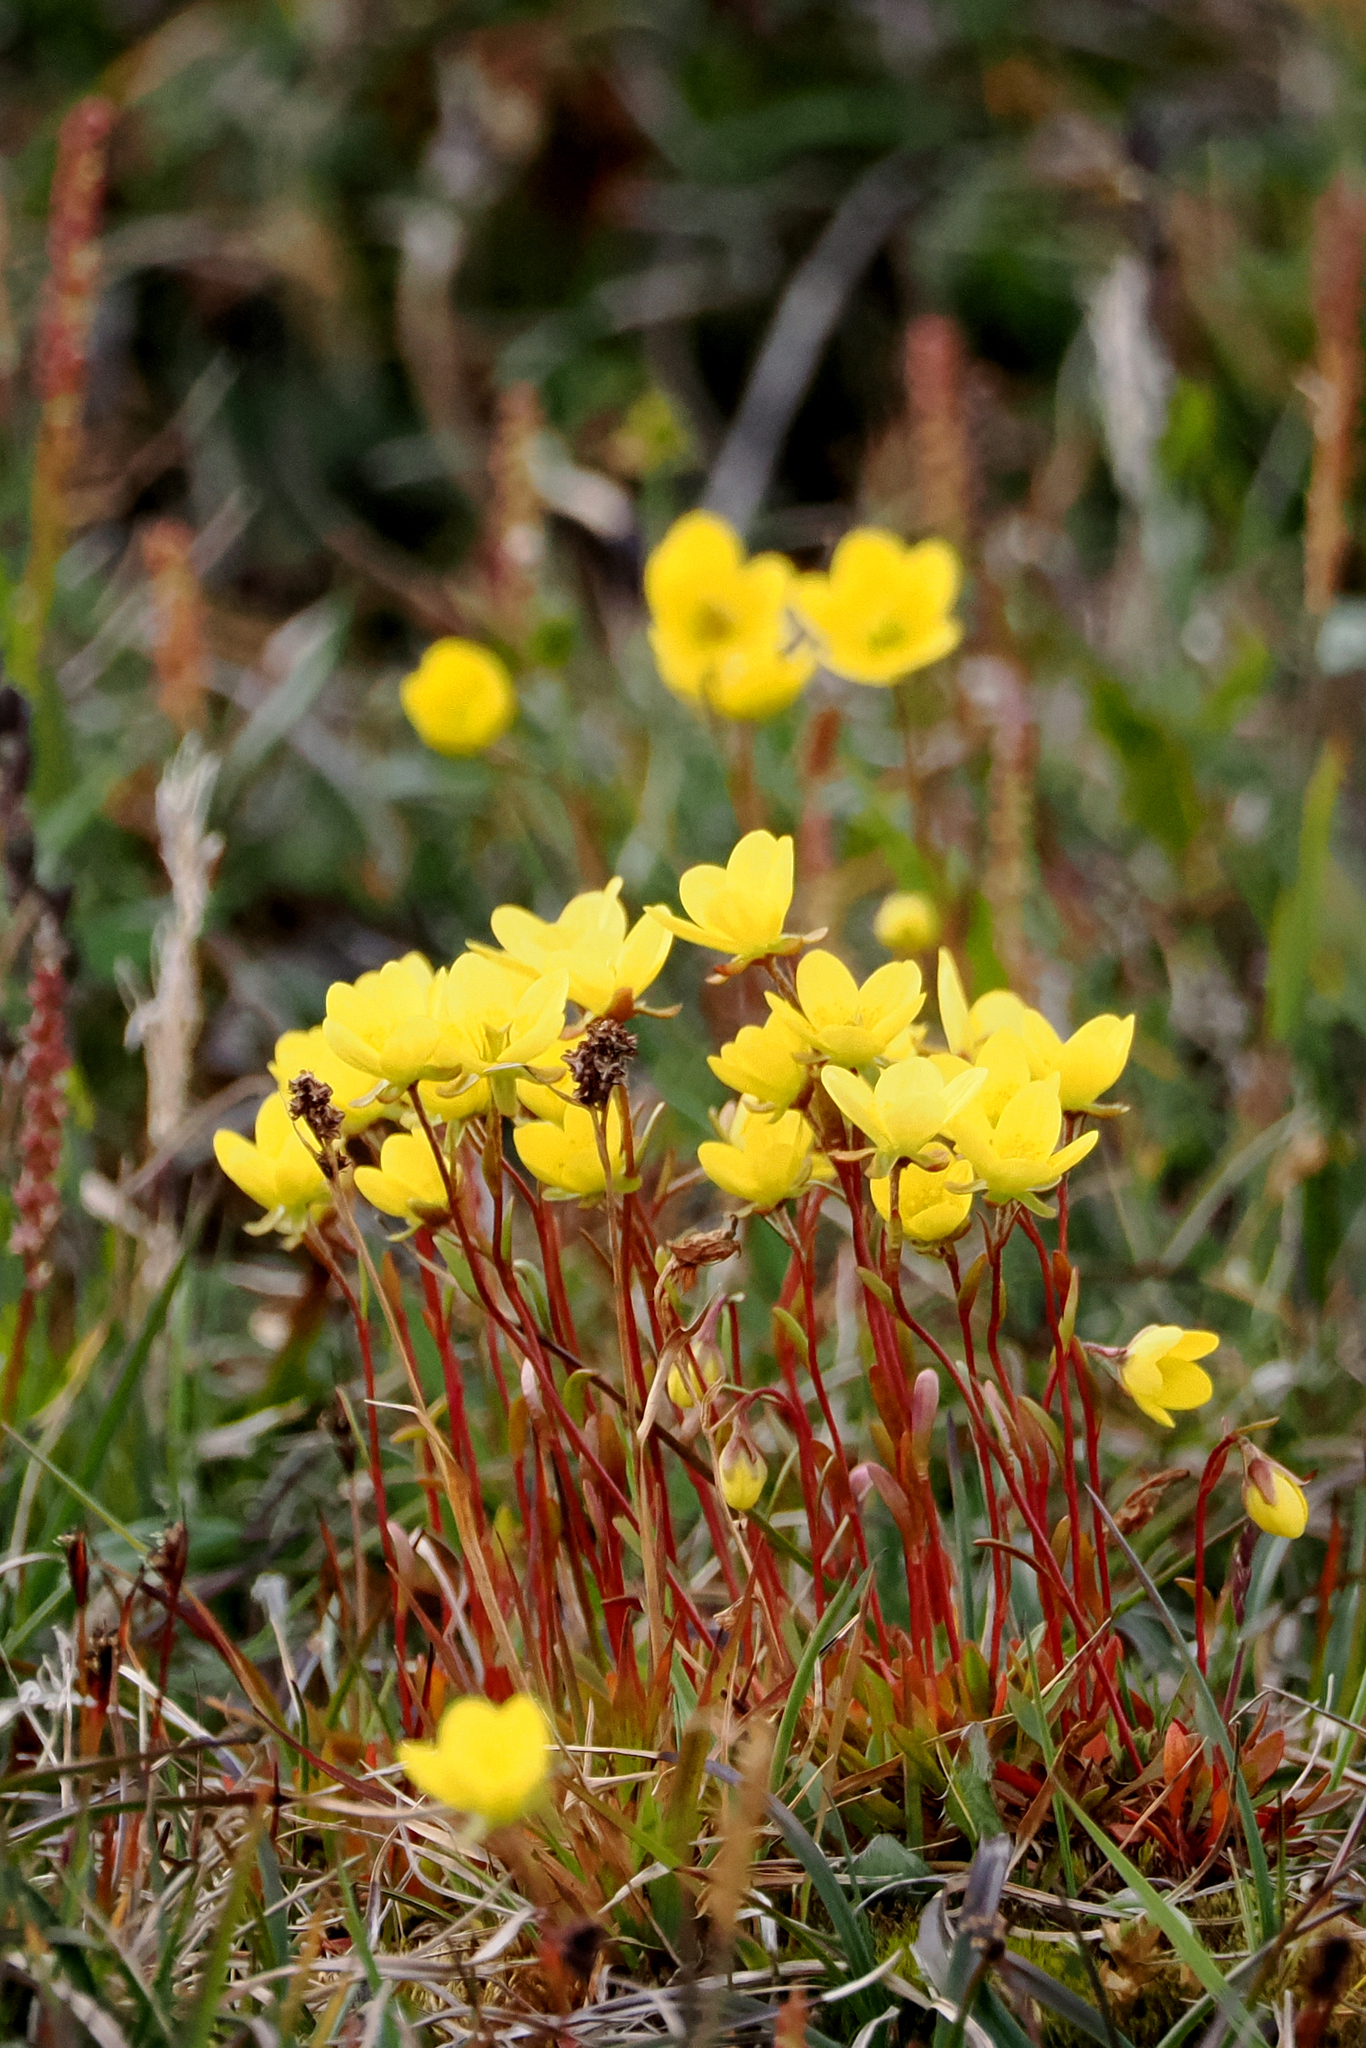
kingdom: Plantae
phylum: Tracheophyta
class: Magnoliopsida
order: Saxifragales
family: Saxifragaceae
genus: Saxifraga
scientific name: Saxifraga hirculus
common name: Yellow marsh saxifrage
